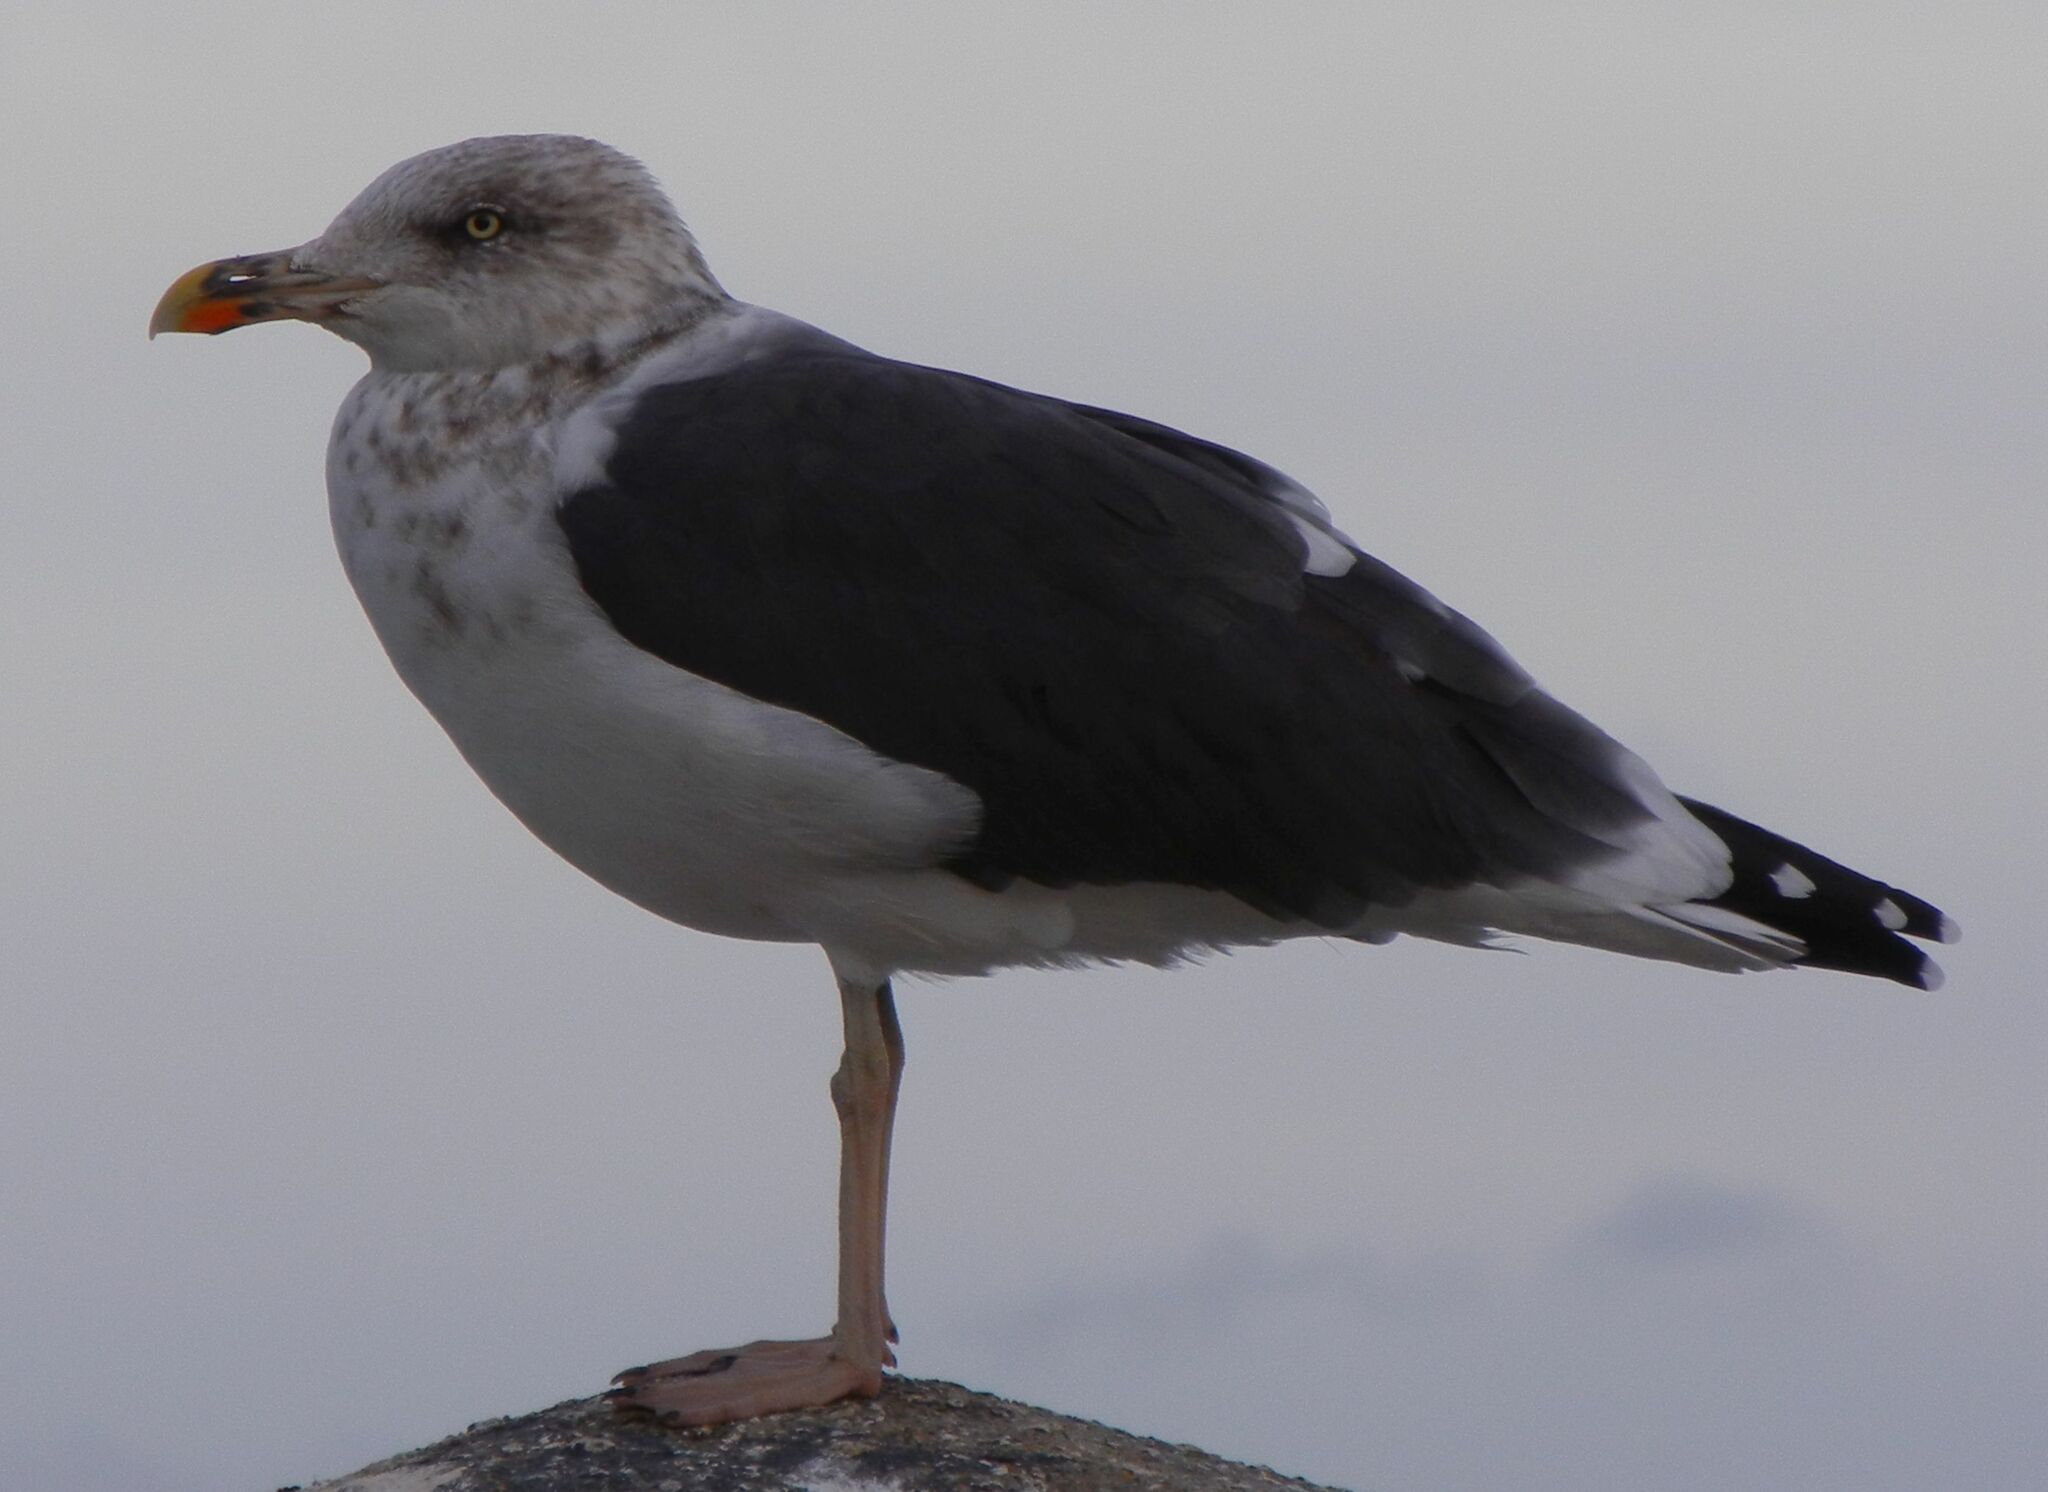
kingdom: Animalia
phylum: Chordata
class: Aves
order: Charadriiformes
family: Laridae
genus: Larus
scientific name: Larus fuscus
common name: Lesser black-backed gull
